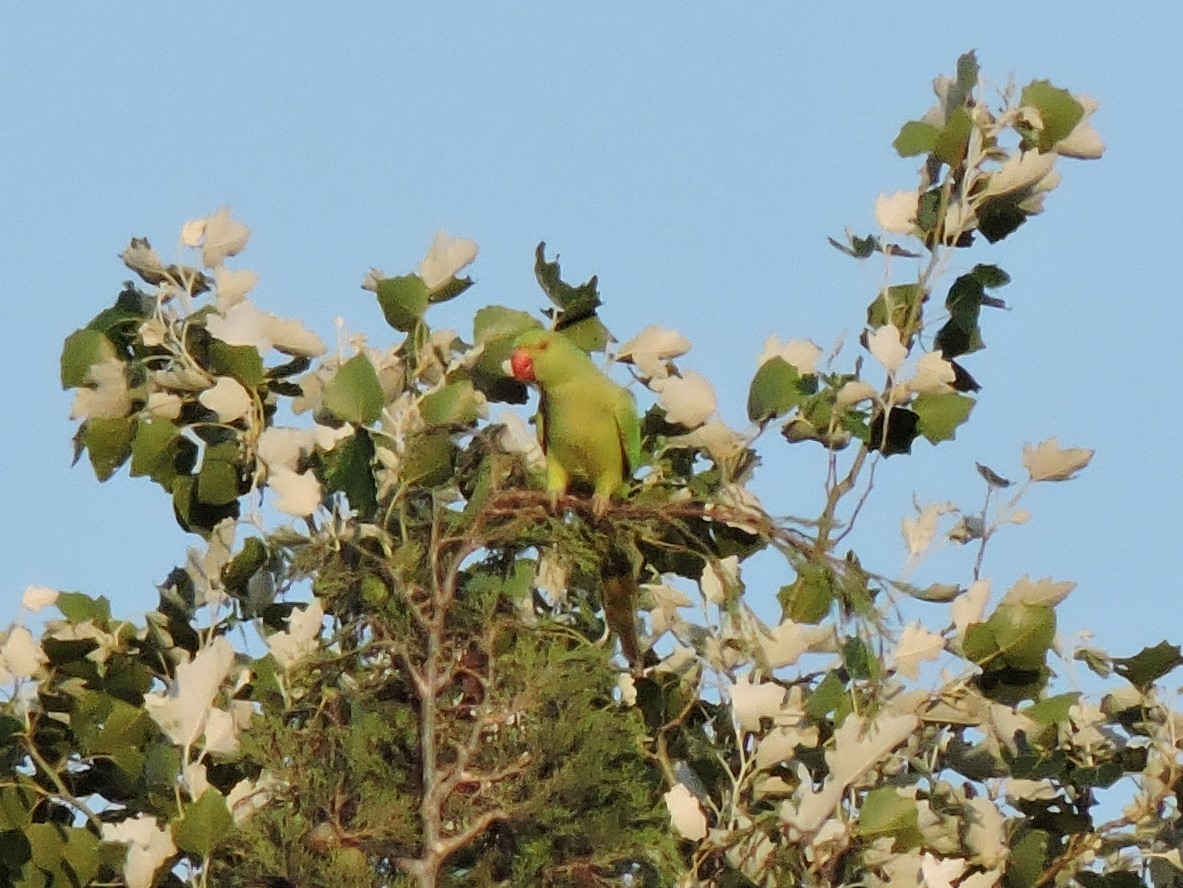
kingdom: Animalia
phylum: Chordata
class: Aves
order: Psittaciformes
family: Psittacidae
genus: Psittacula
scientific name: Psittacula krameri
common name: Rose-ringed parakeet
